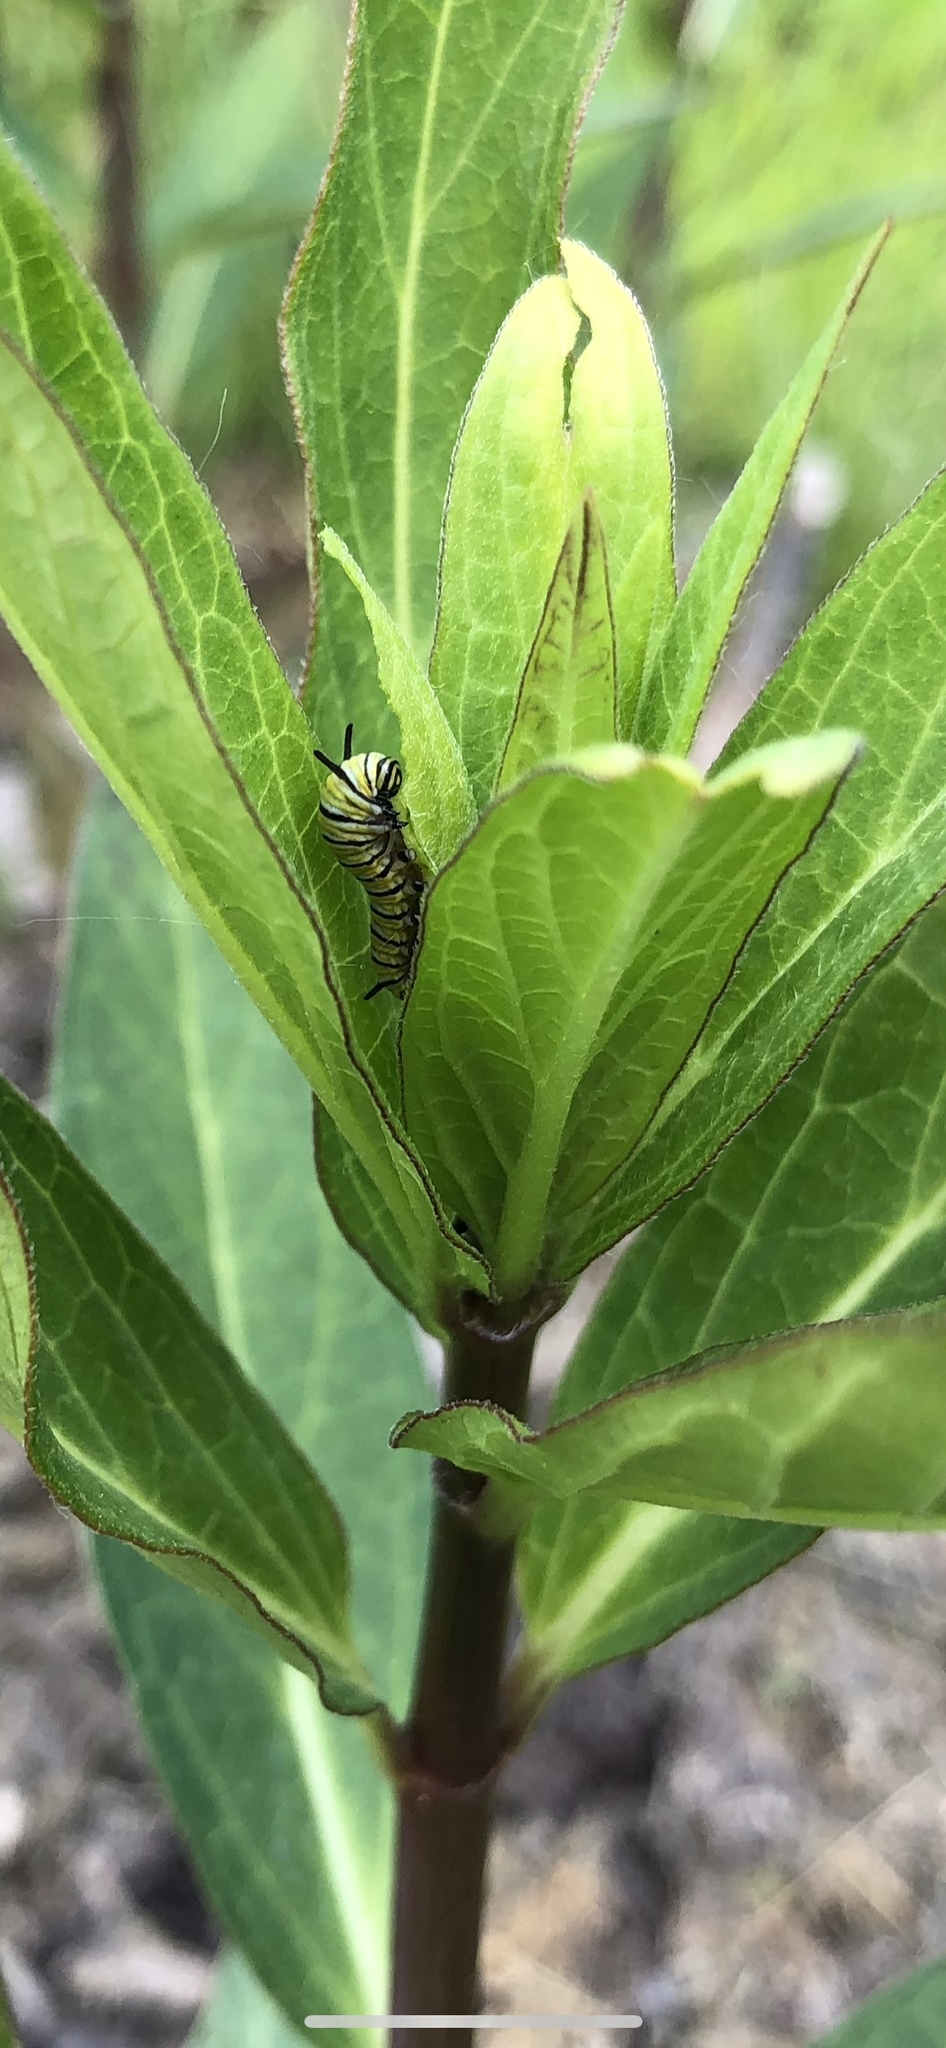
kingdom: Animalia
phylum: Arthropoda
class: Insecta
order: Lepidoptera
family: Nymphalidae
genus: Danaus
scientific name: Danaus plexippus
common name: Monarch
